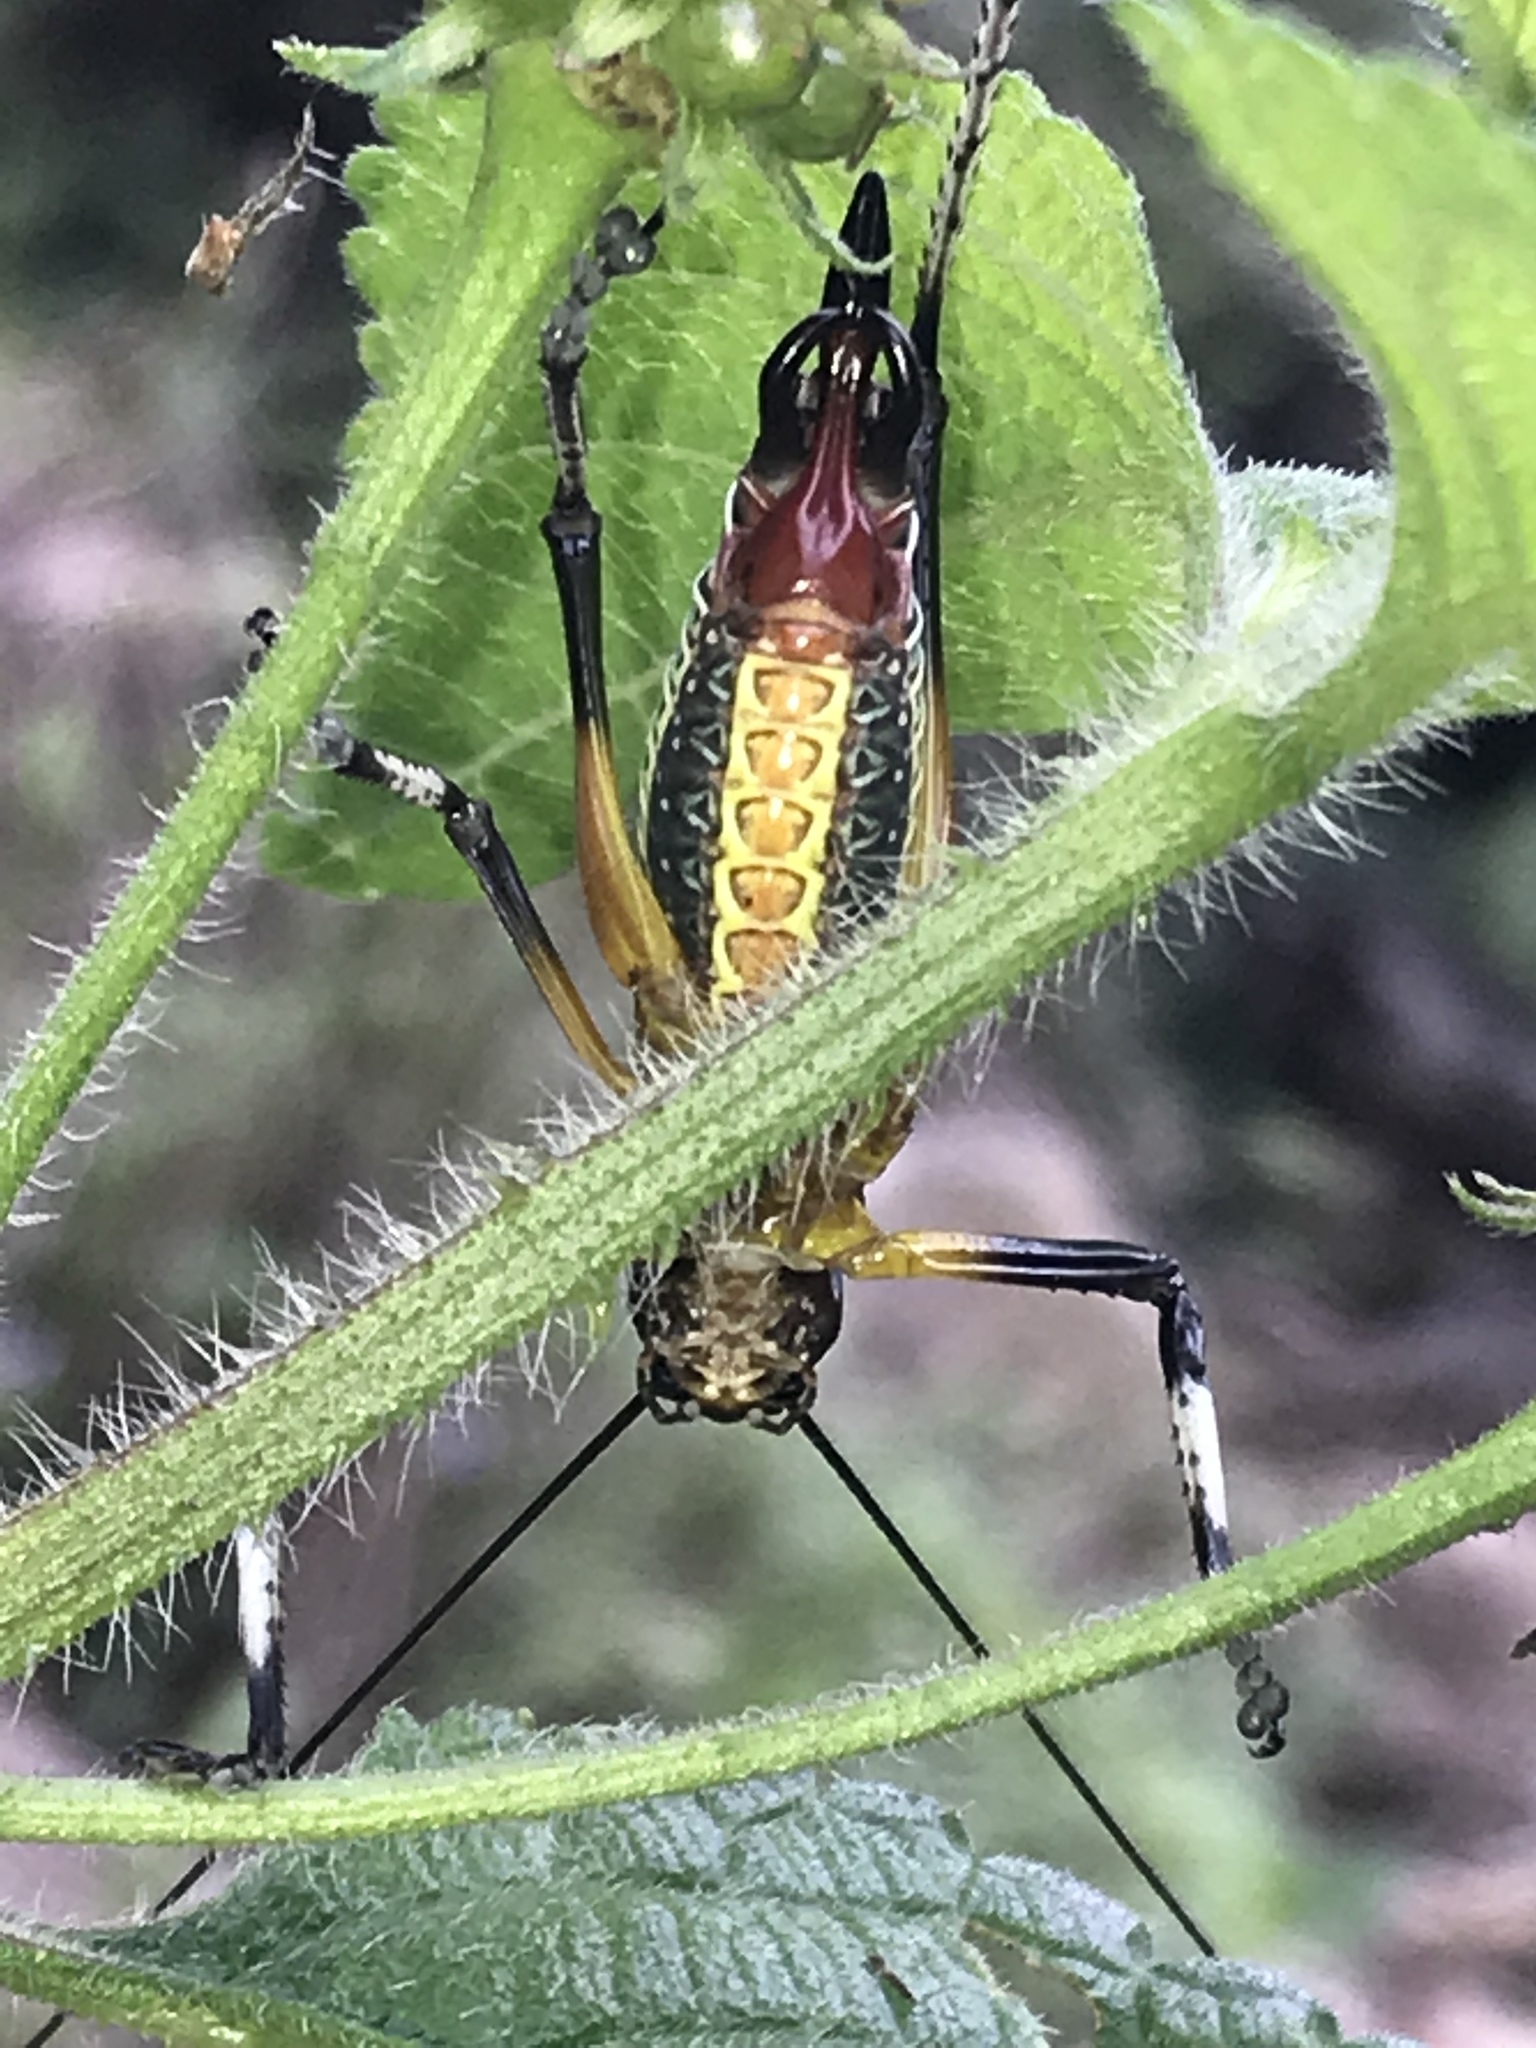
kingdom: Animalia
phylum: Arthropoda
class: Insecta
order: Orthoptera
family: Tettigoniidae
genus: Pterophylla
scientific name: Pterophylla beltrani
